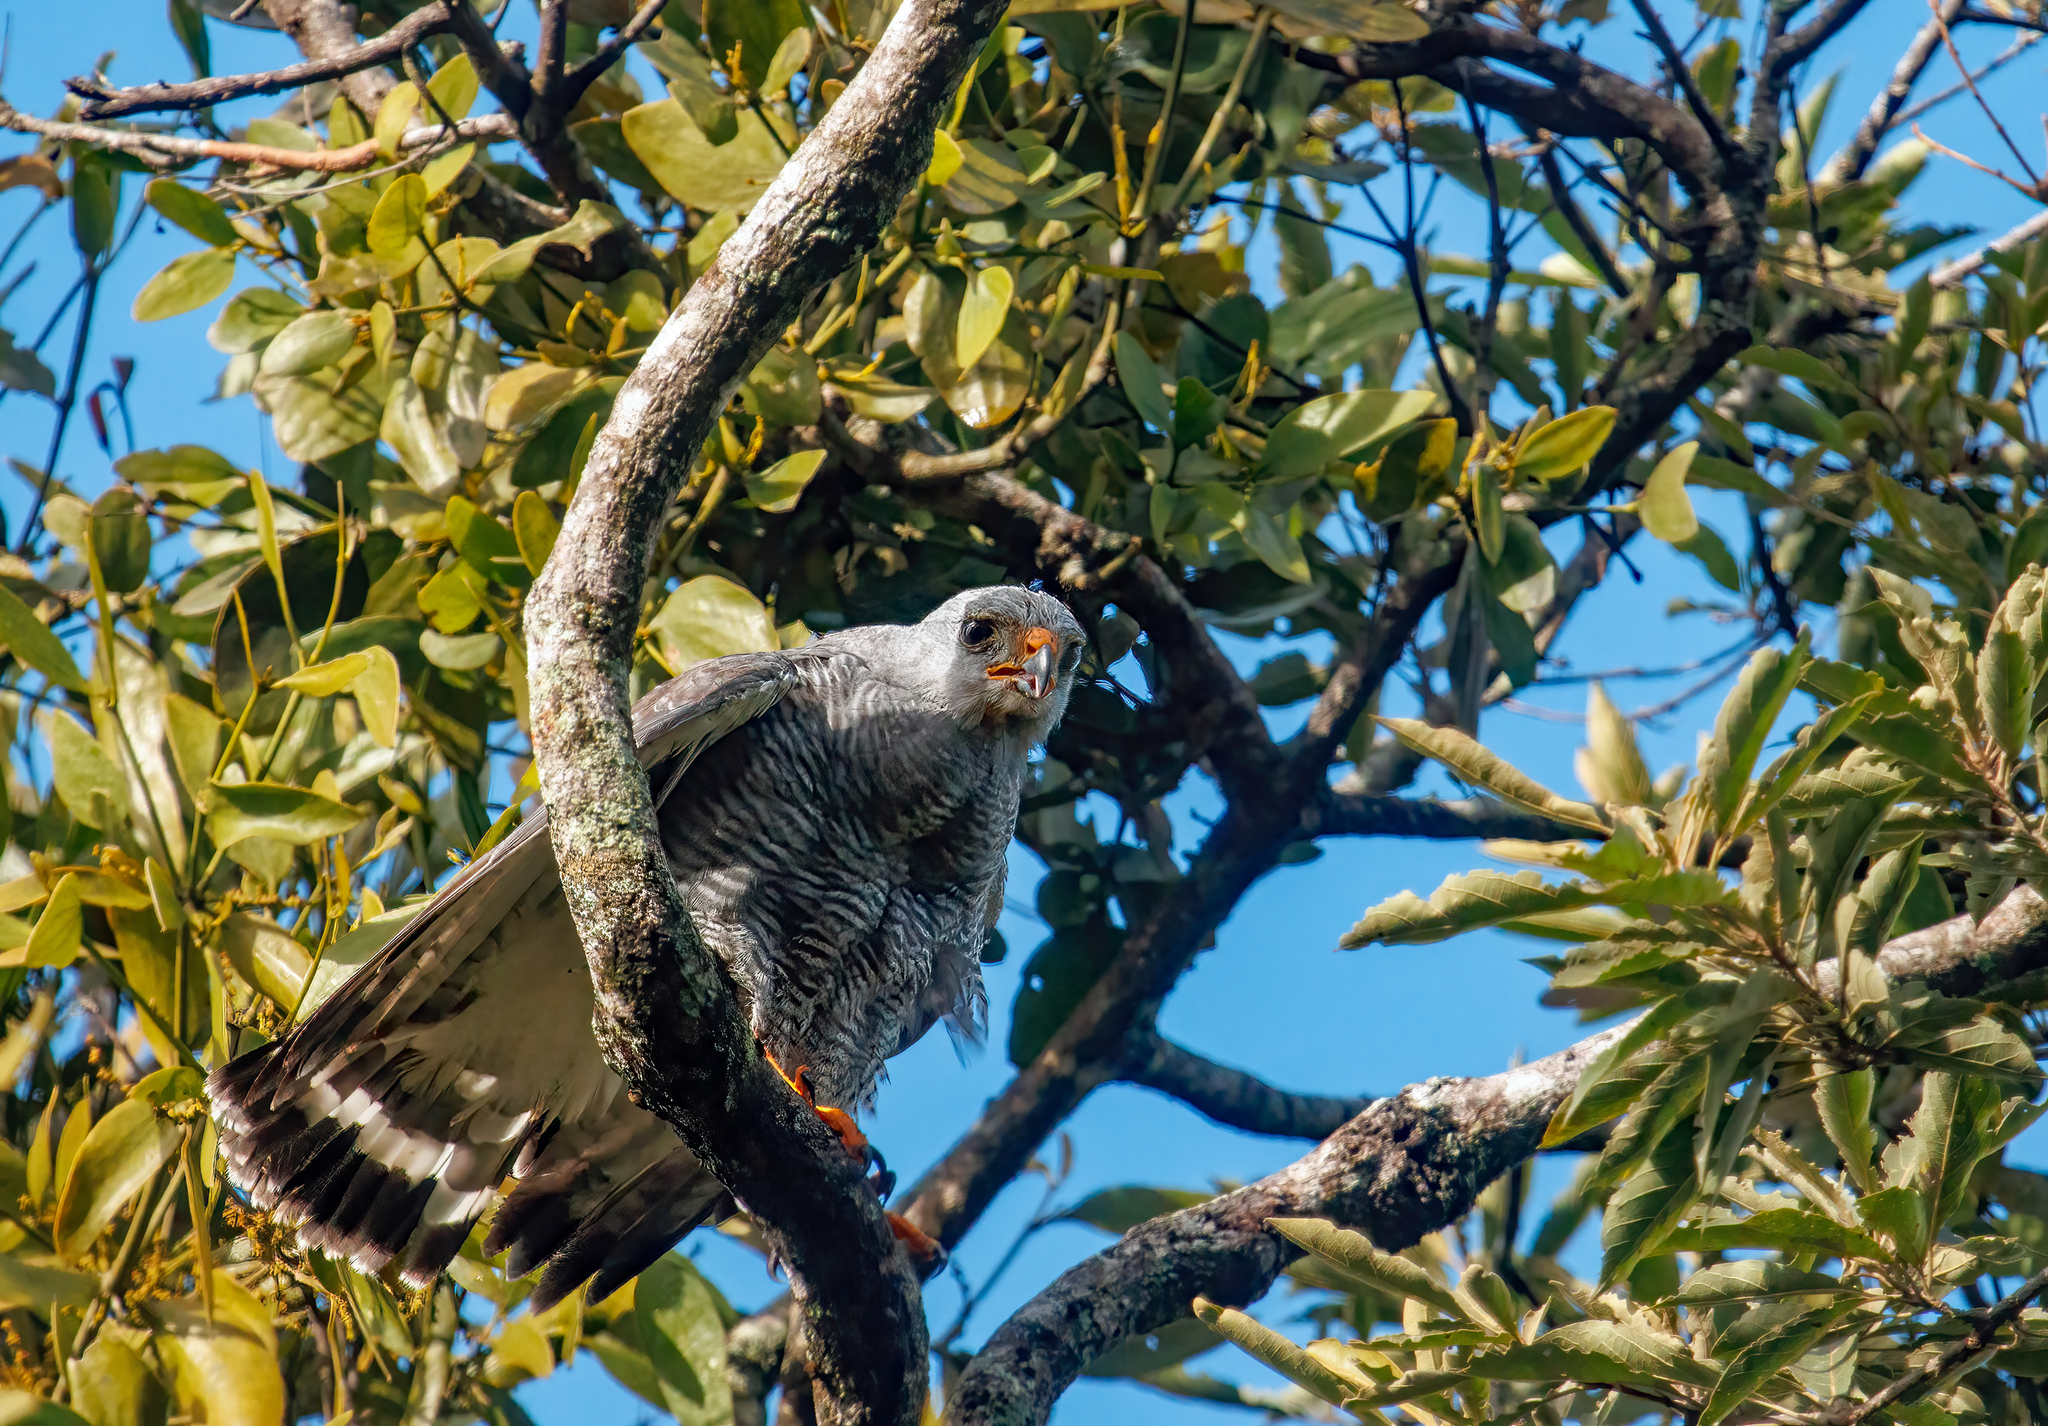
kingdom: Animalia
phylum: Chordata
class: Aves
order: Accipitriformes
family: Accipitridae
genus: Buteo
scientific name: Buteo nitidus
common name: Grey-lined hawk
